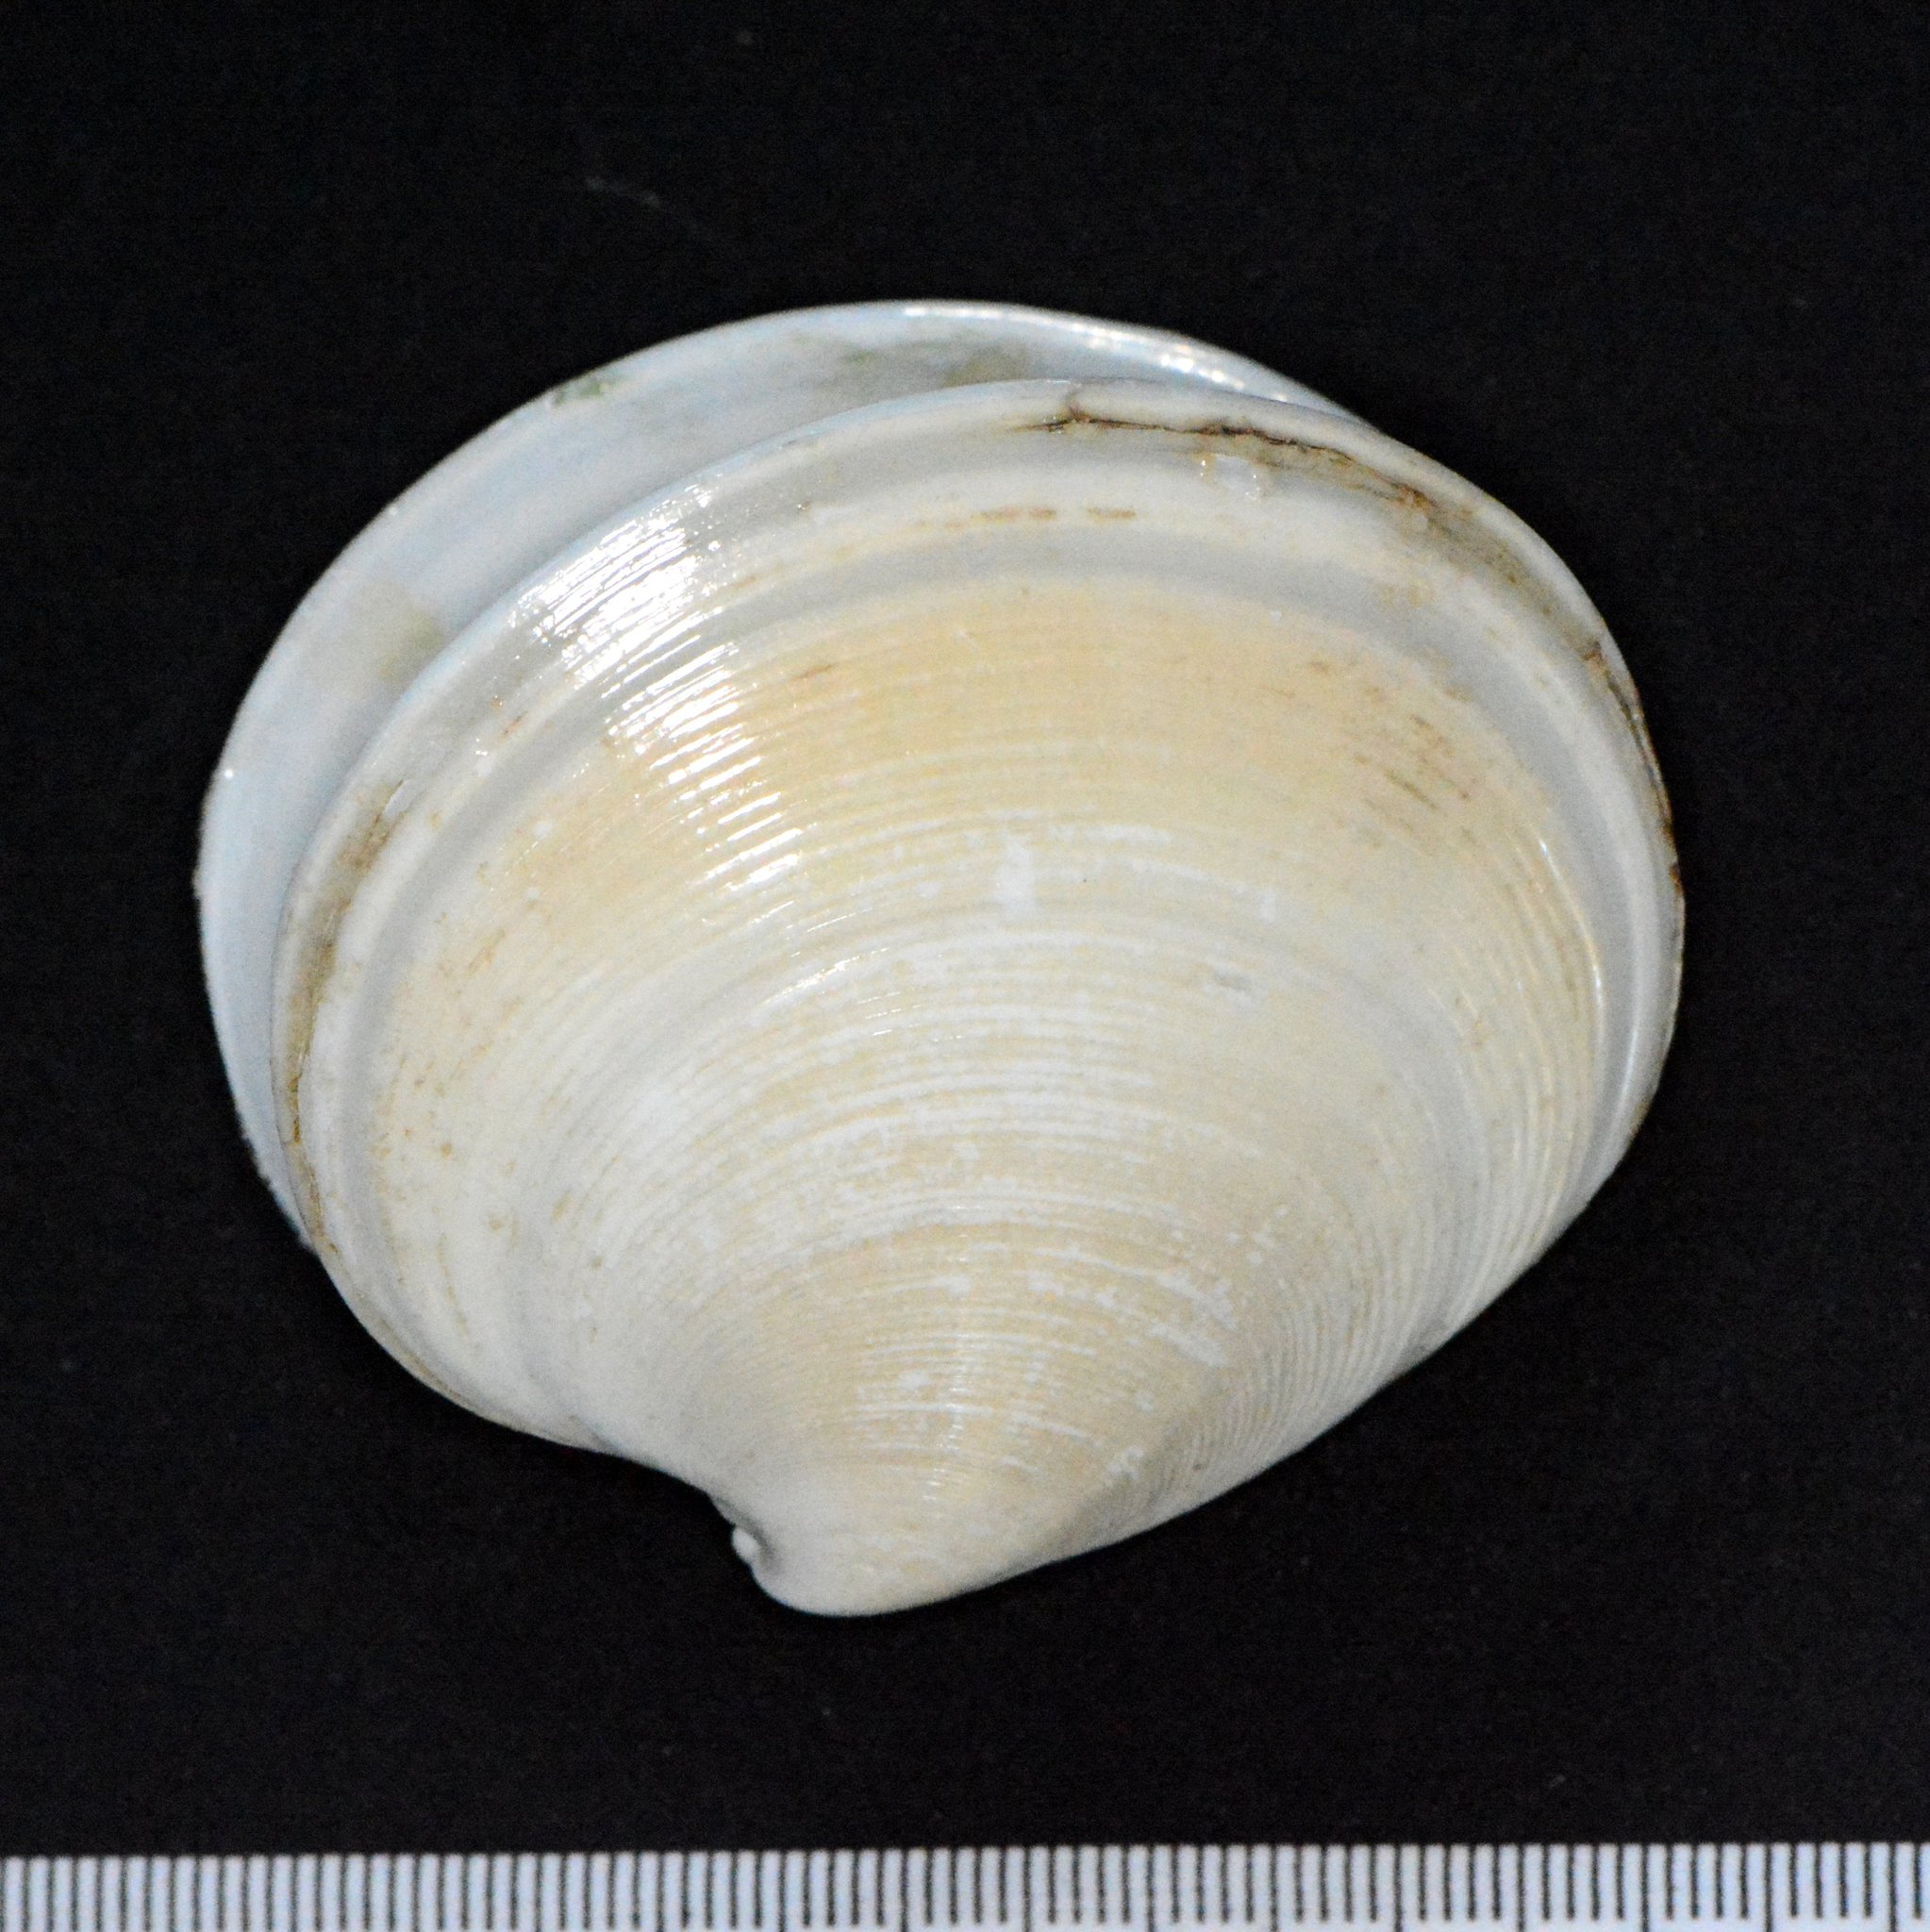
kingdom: Animalia
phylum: Mollusca
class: Bivalvia
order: Venerida
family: Veneridae
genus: Dosinia
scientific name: Dosinia discus
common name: Disk dosinia
